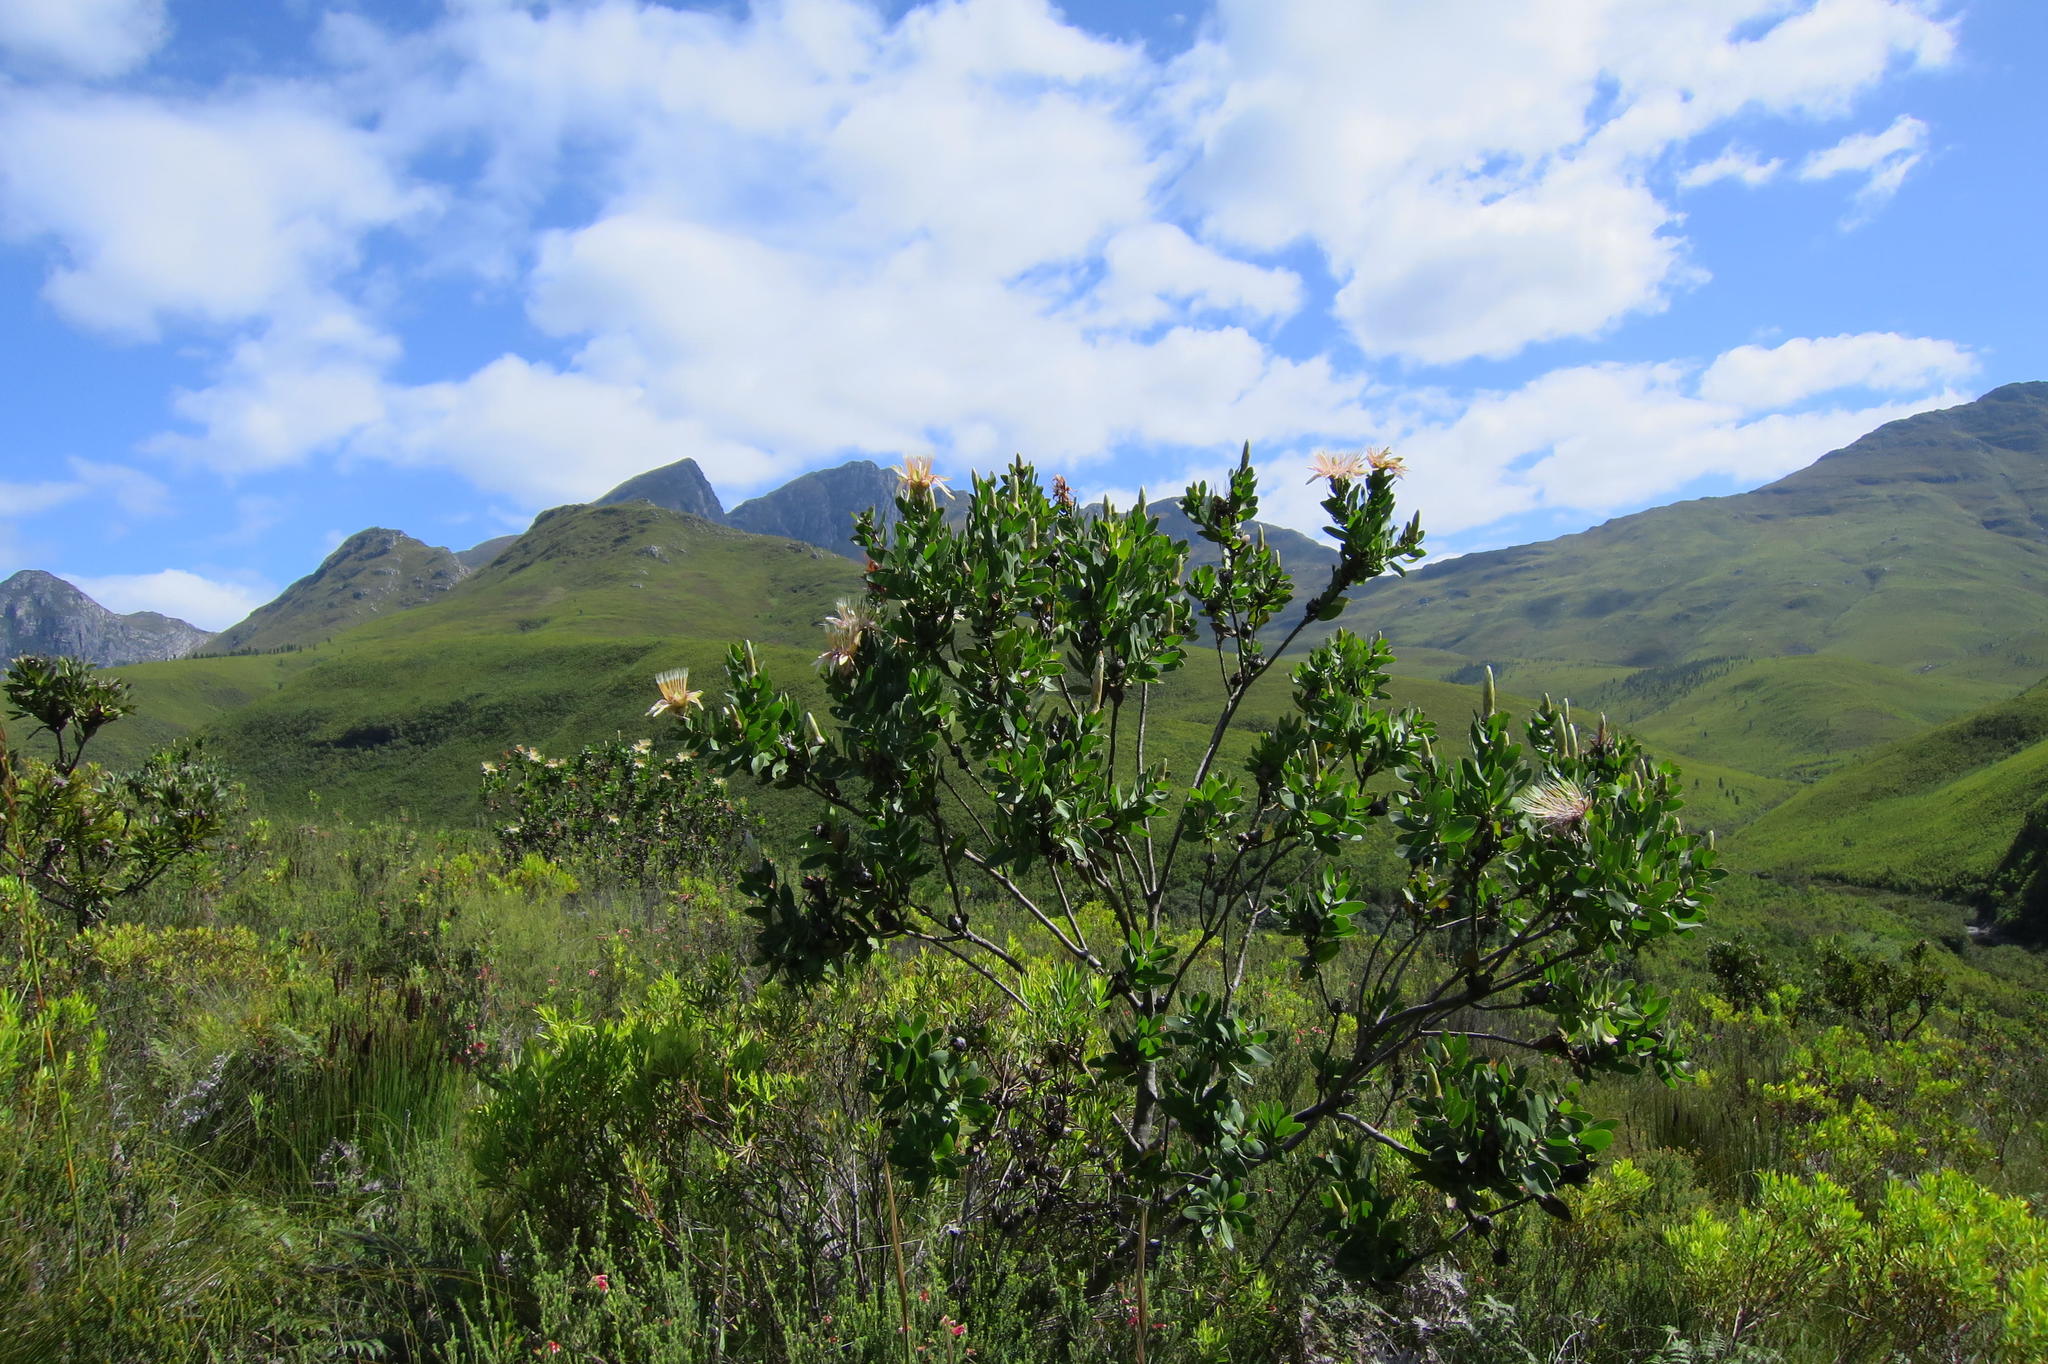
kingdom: Plantae
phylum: Tracheophyta
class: Magnoliopsida
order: Proteales
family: Proteaceae
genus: Protea
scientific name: Protea aurea
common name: Shuttlecock sugarbush
